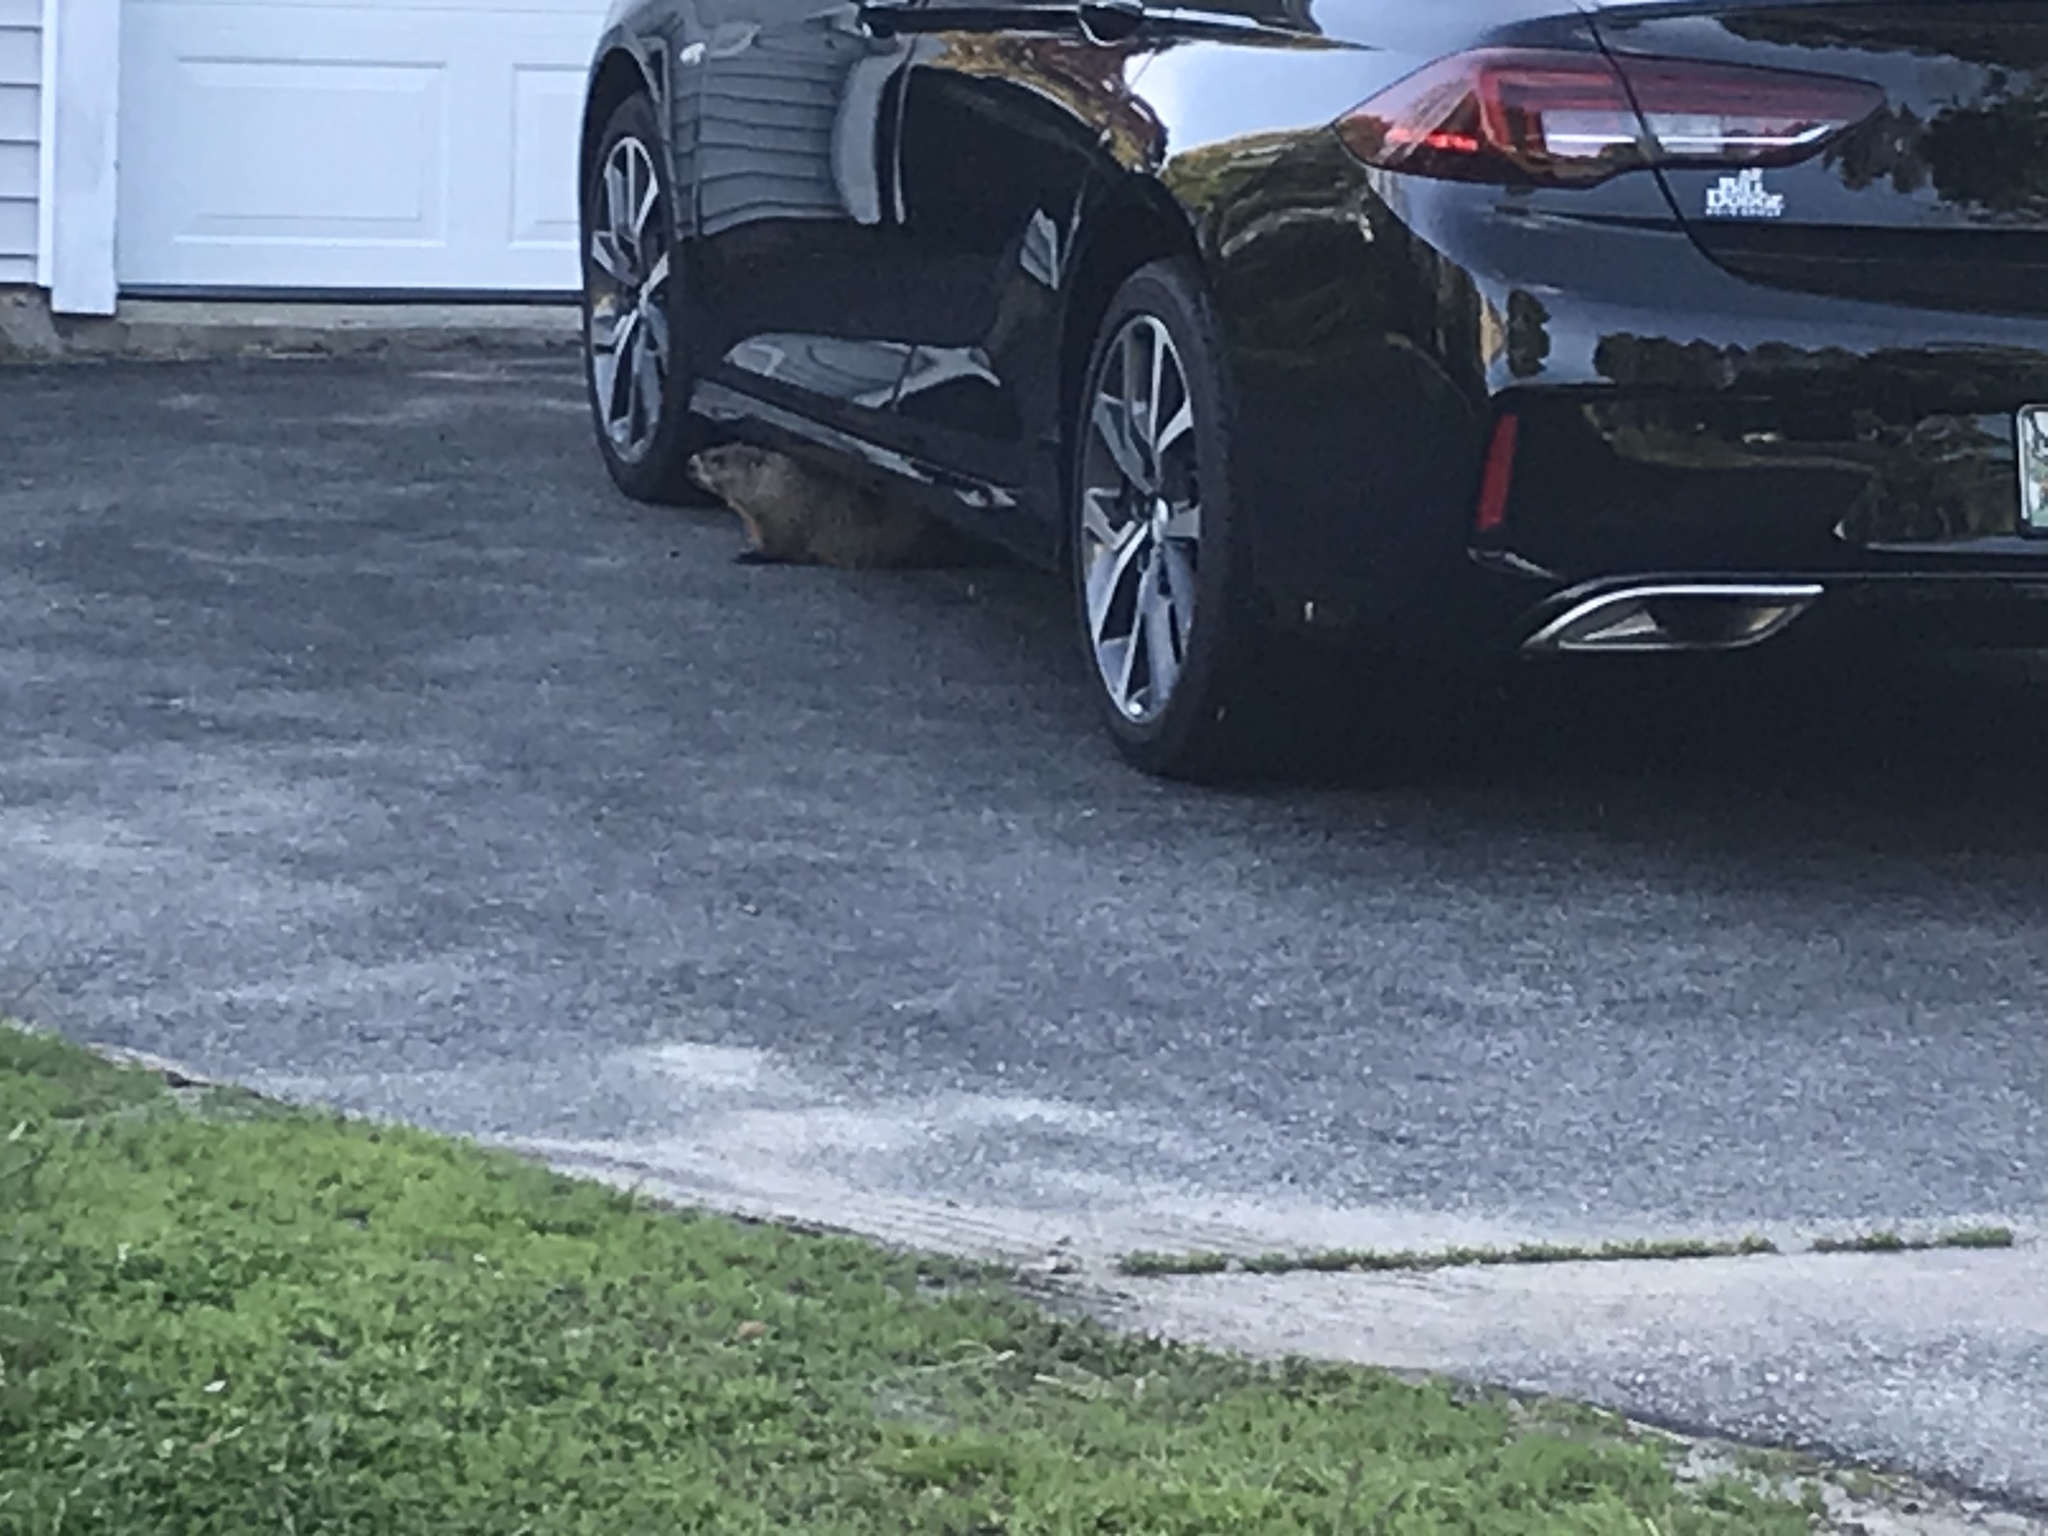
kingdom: Animalia
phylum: Chordata
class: Mammalia
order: Rodentia
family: Sciuridae
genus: Marmota
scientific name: Marmota monax
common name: Groundhog
